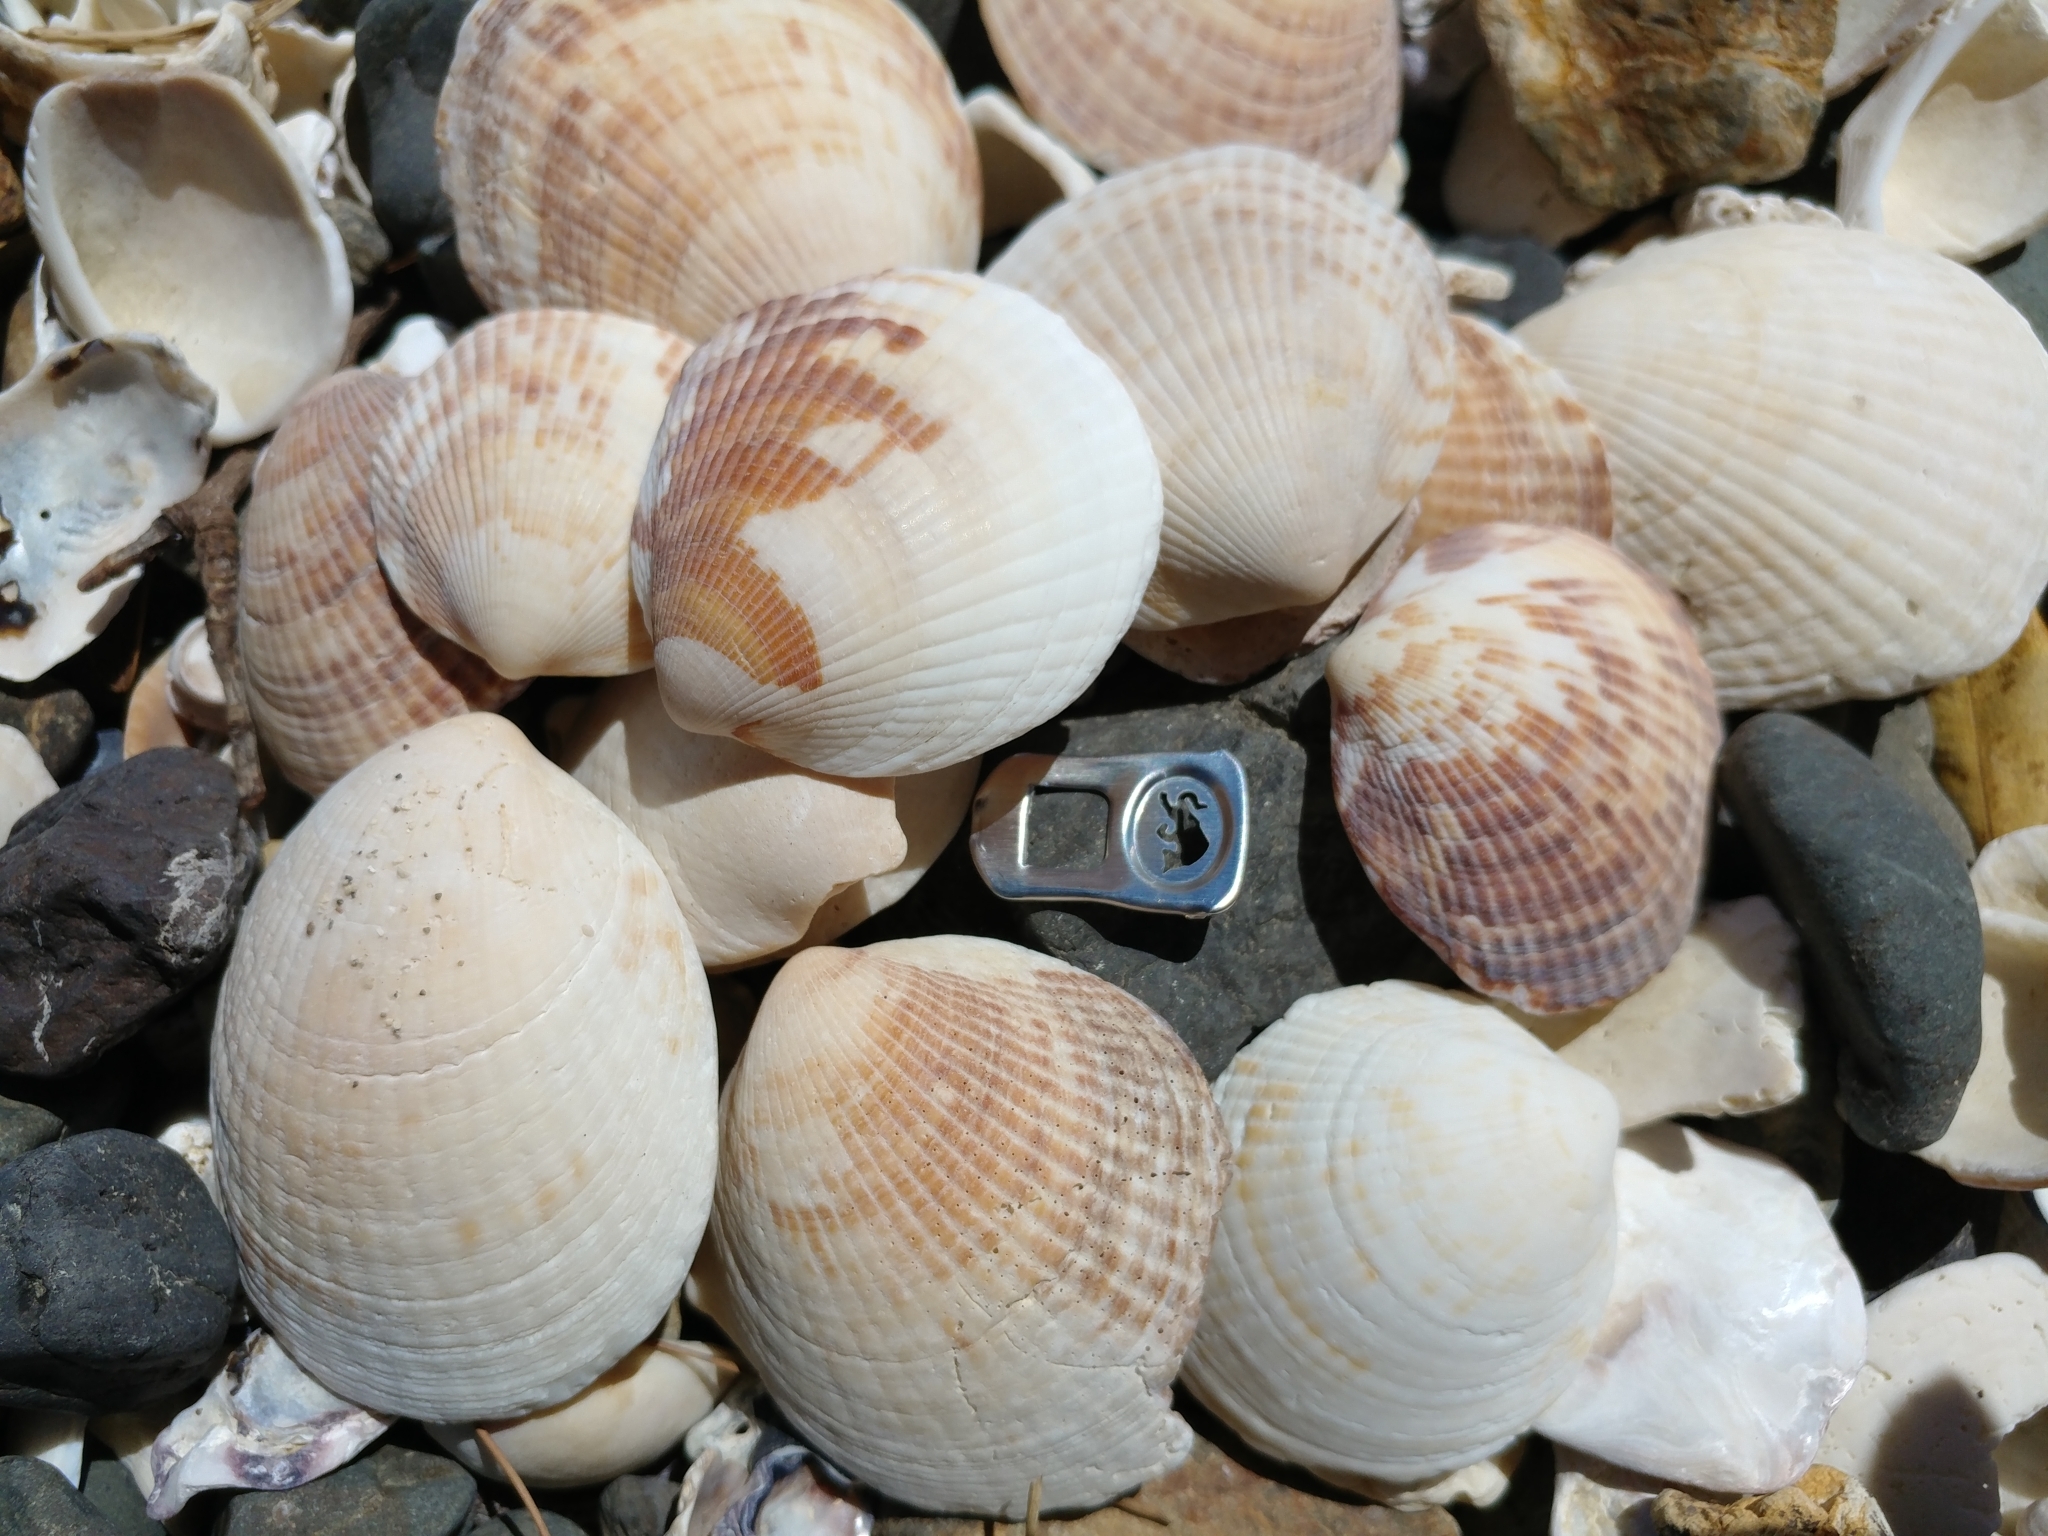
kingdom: Animalia
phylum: Mollusca
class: Bivalvia
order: Arcida
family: Glycymerididae
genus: Tucetona
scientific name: Tucetona laticostata
